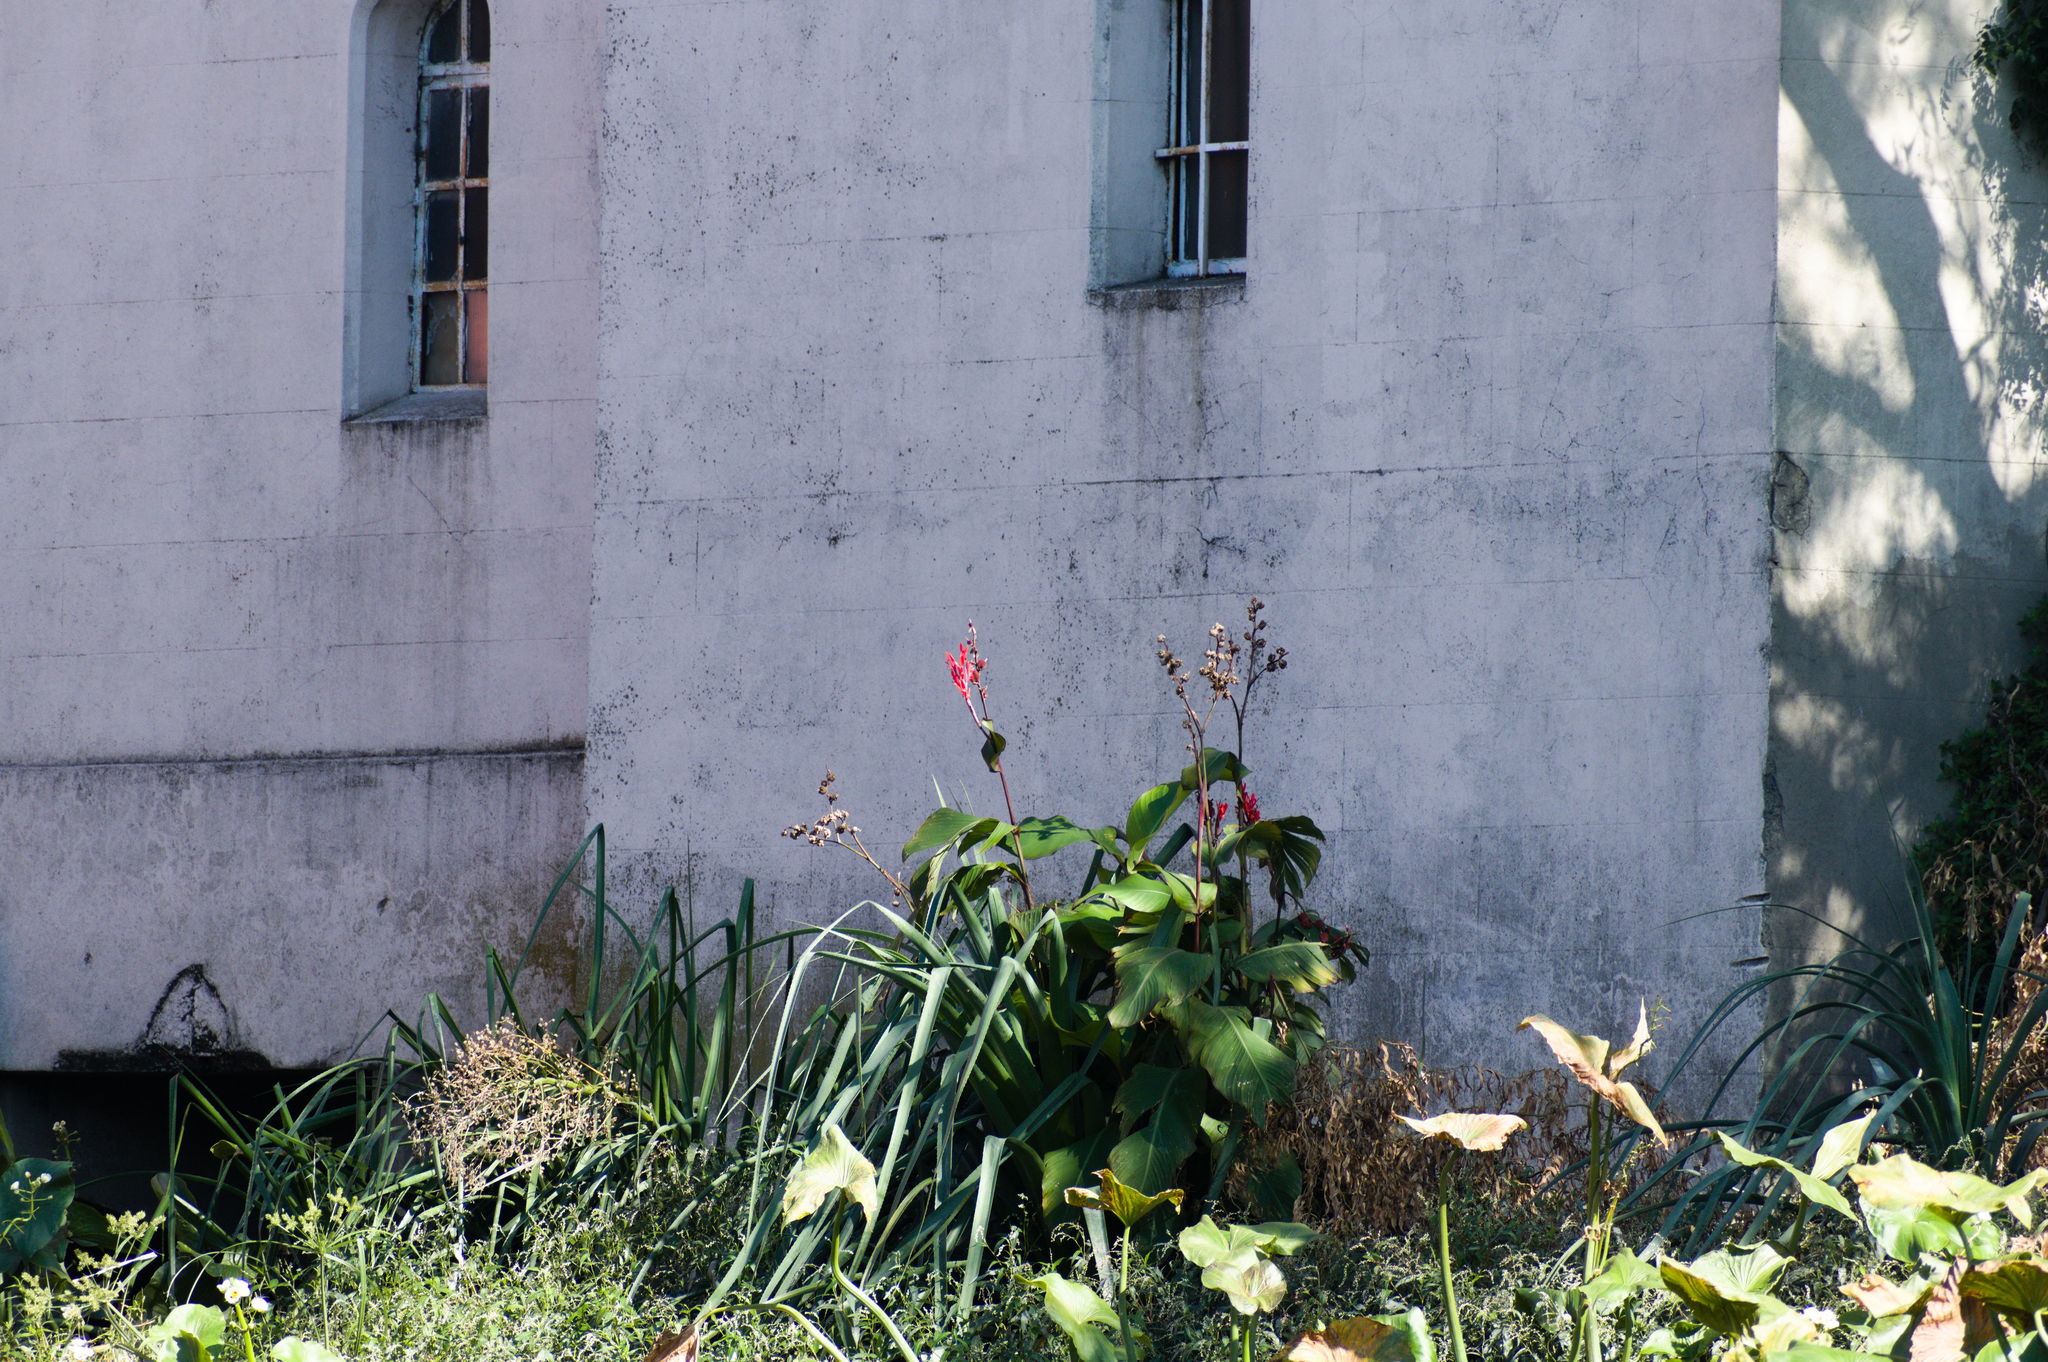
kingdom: Plantae
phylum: Tracheophyta
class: Liliopsida
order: Zingiberales
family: Cannaceae
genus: Canna
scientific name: Canna indica
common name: Indian shot
